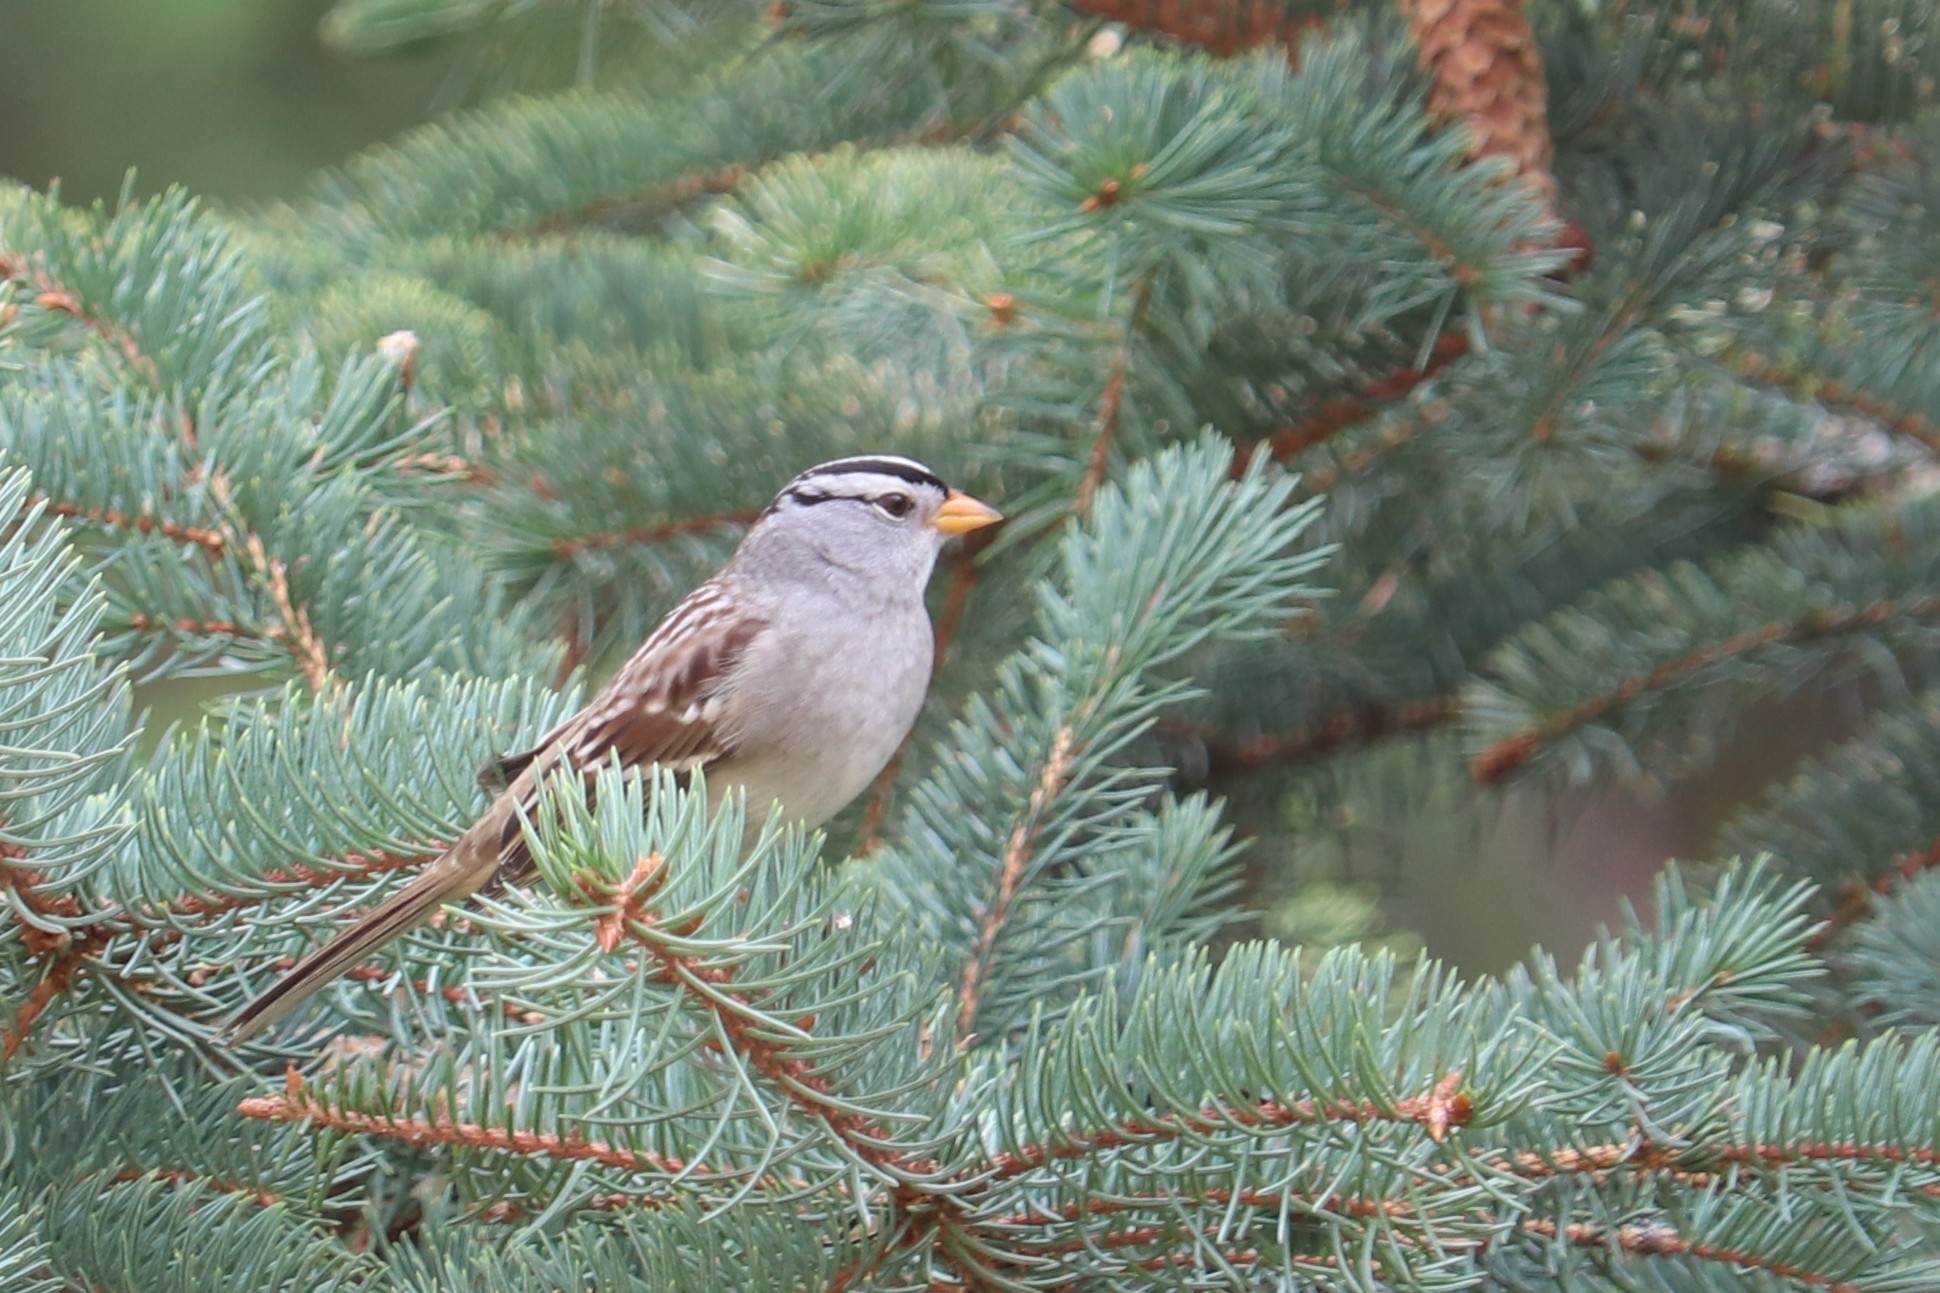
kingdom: Animalia
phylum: Chordata
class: Aves
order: Passeriformes
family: Passerellidae
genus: Zonotrichia
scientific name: Zonotrichia leucophrys
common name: White-crowned sparrow
